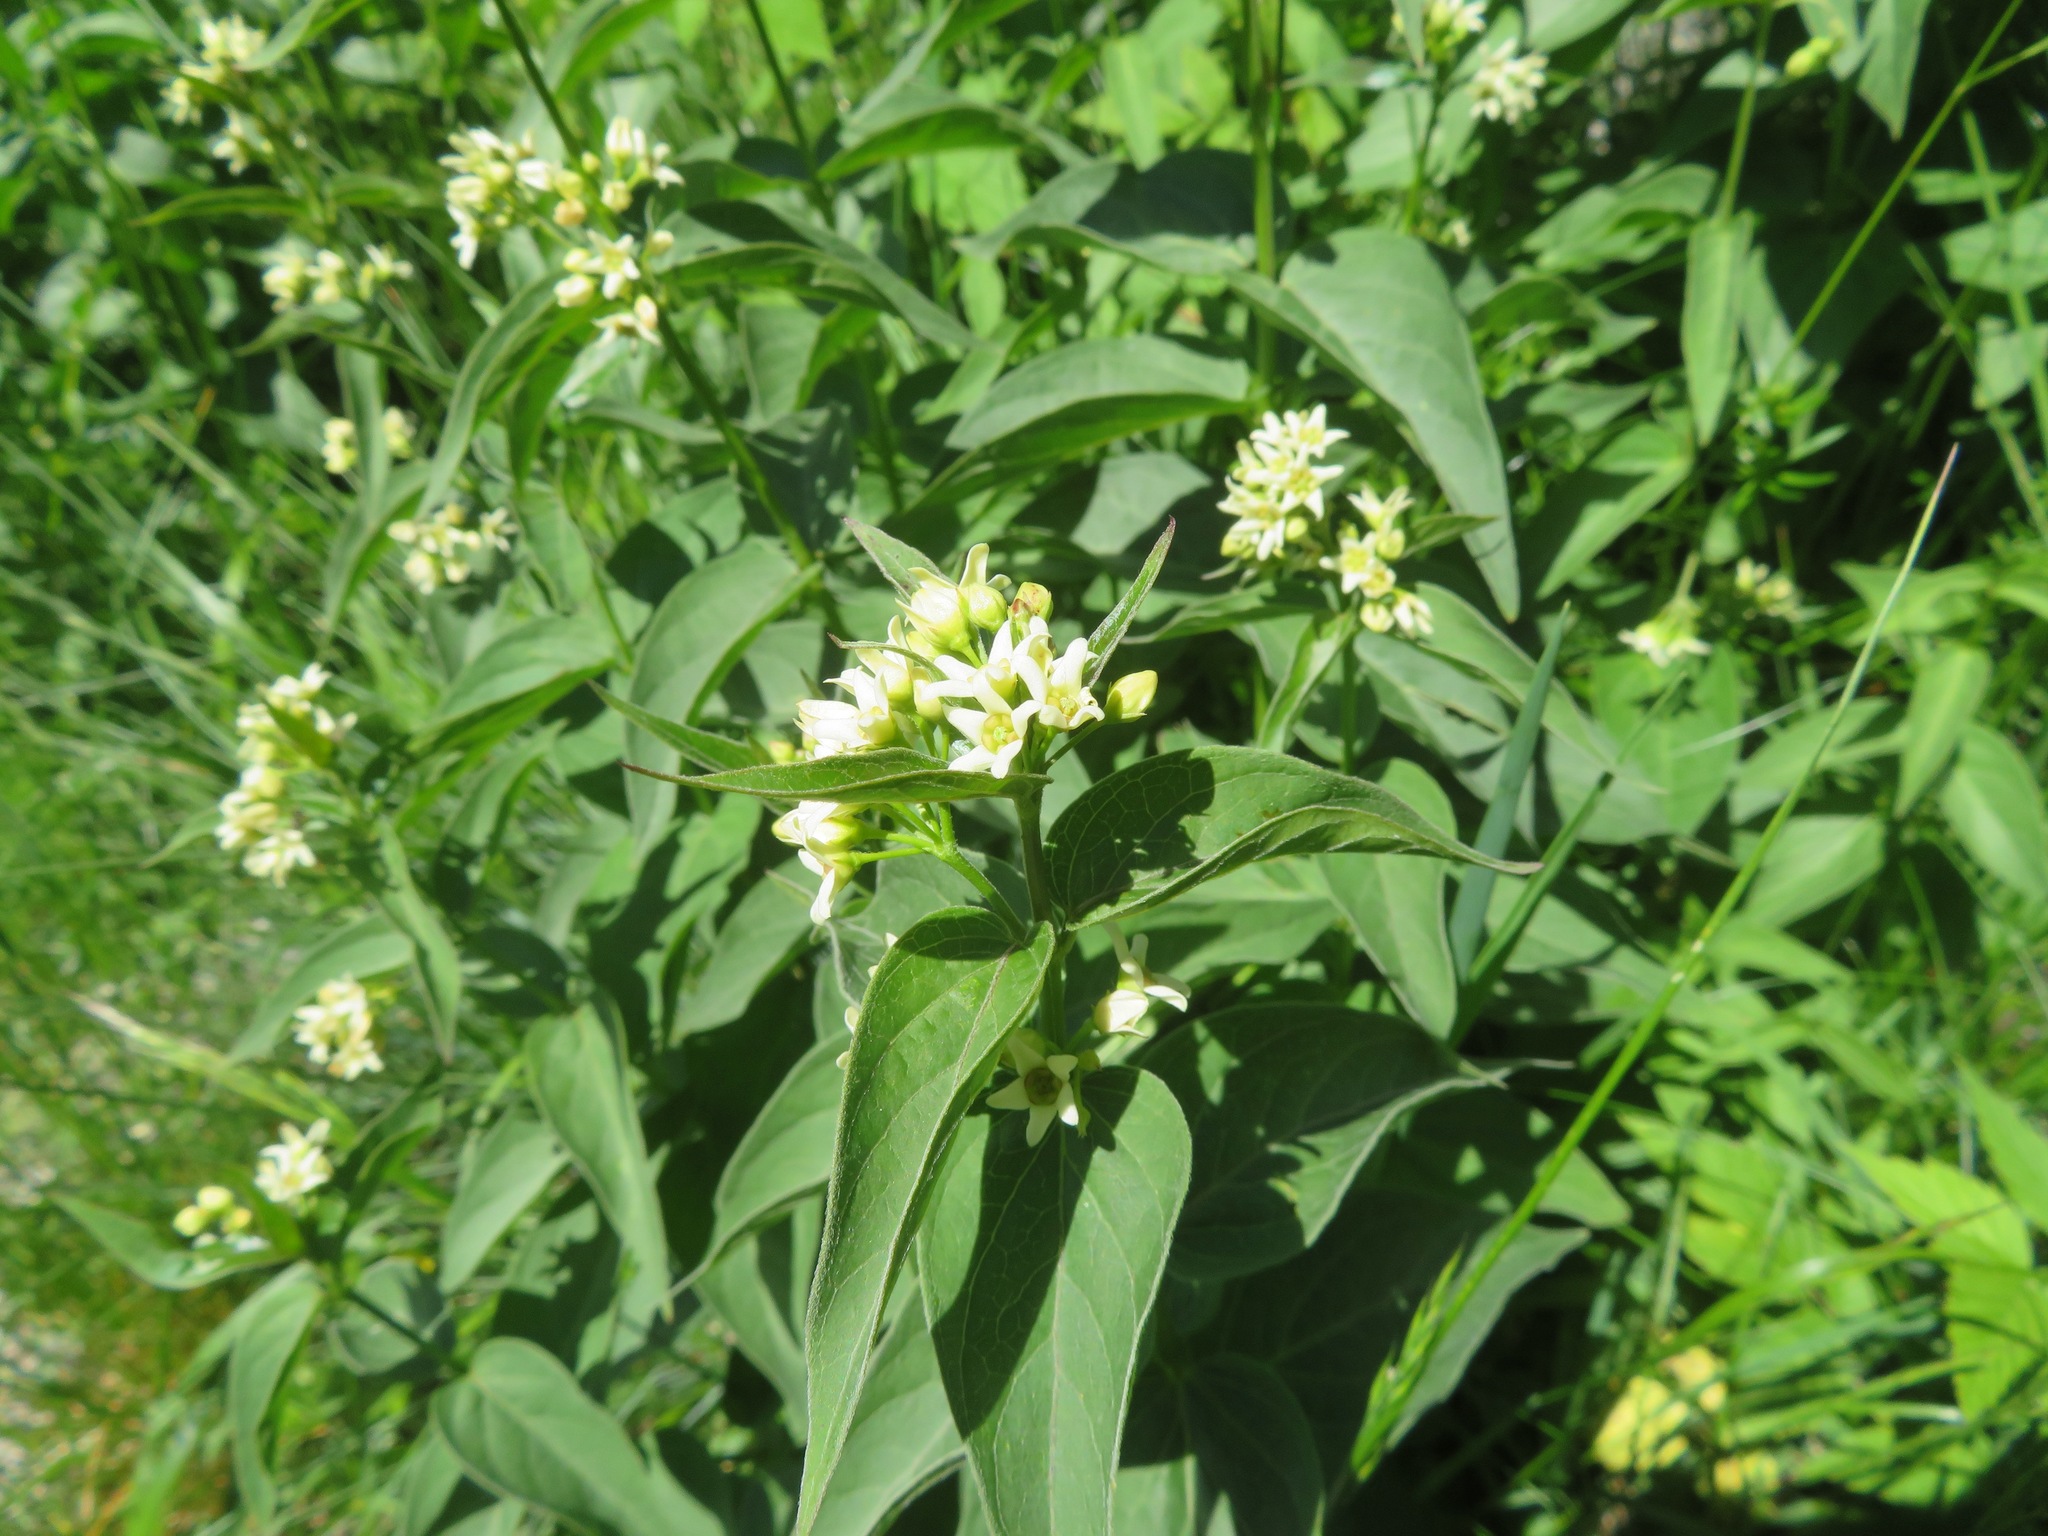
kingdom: Plantae
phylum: Tracheophyta
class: Magnoliopsida
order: Gentianales
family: Apocynaceae
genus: Vincetoxicum
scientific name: Vincetoxicum hirundinaria
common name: White swallowwort
